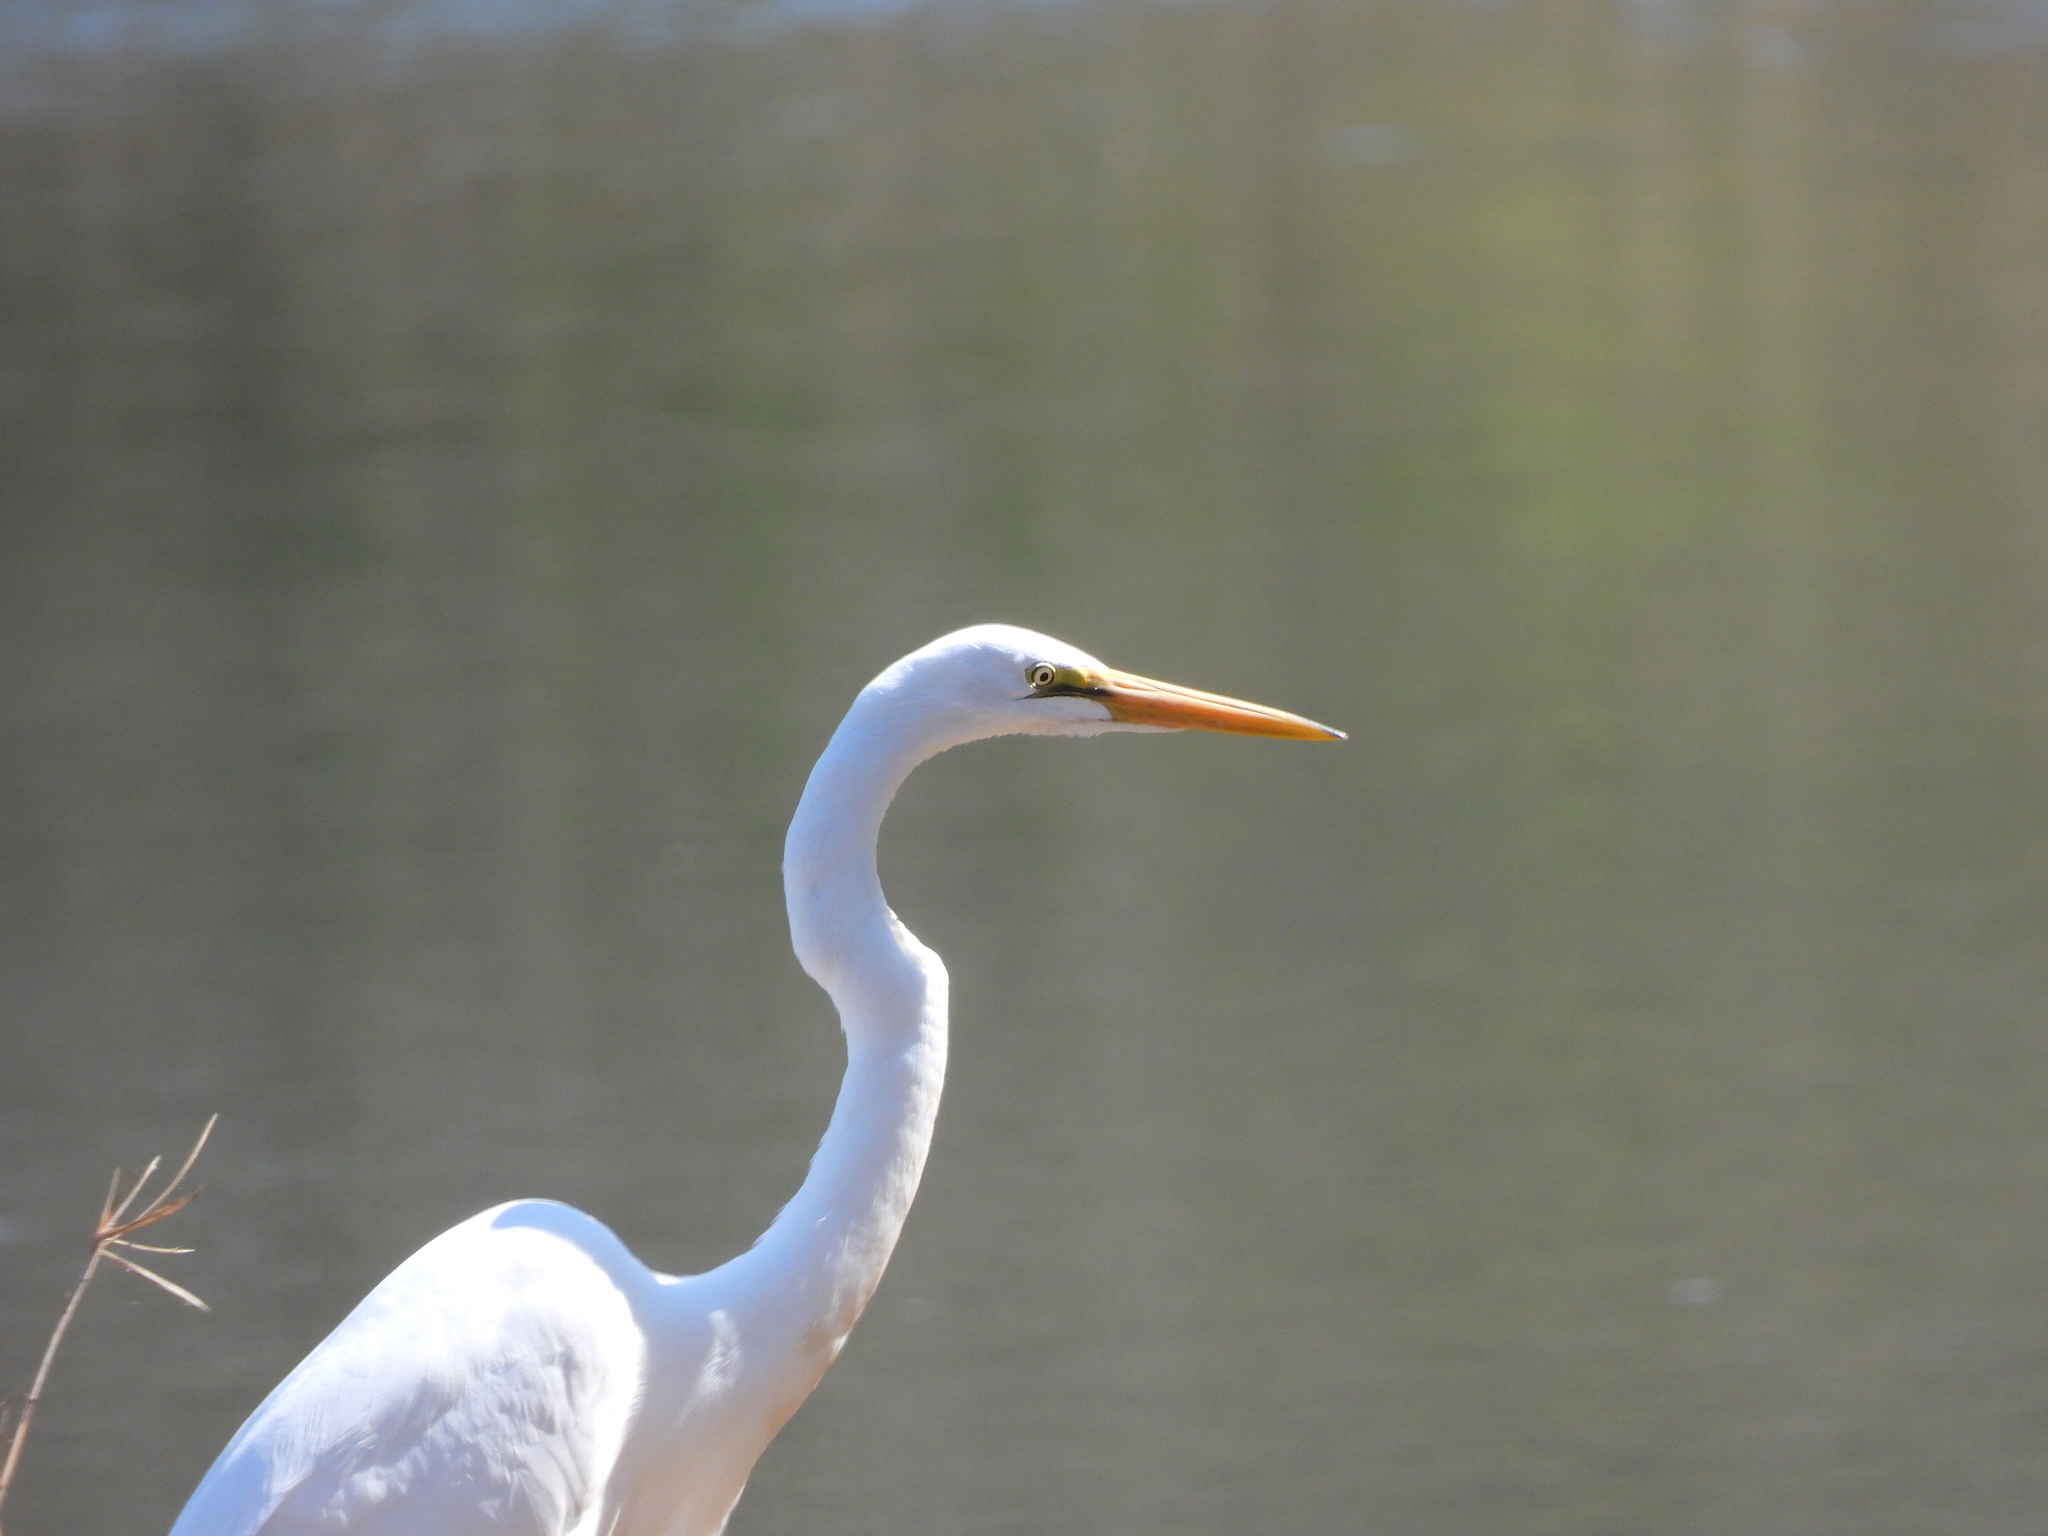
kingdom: Animalia
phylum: Chordata
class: Aves
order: Pelecaniformes
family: Ardeidae
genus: Ardea
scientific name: Ardea alba
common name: Great egret
